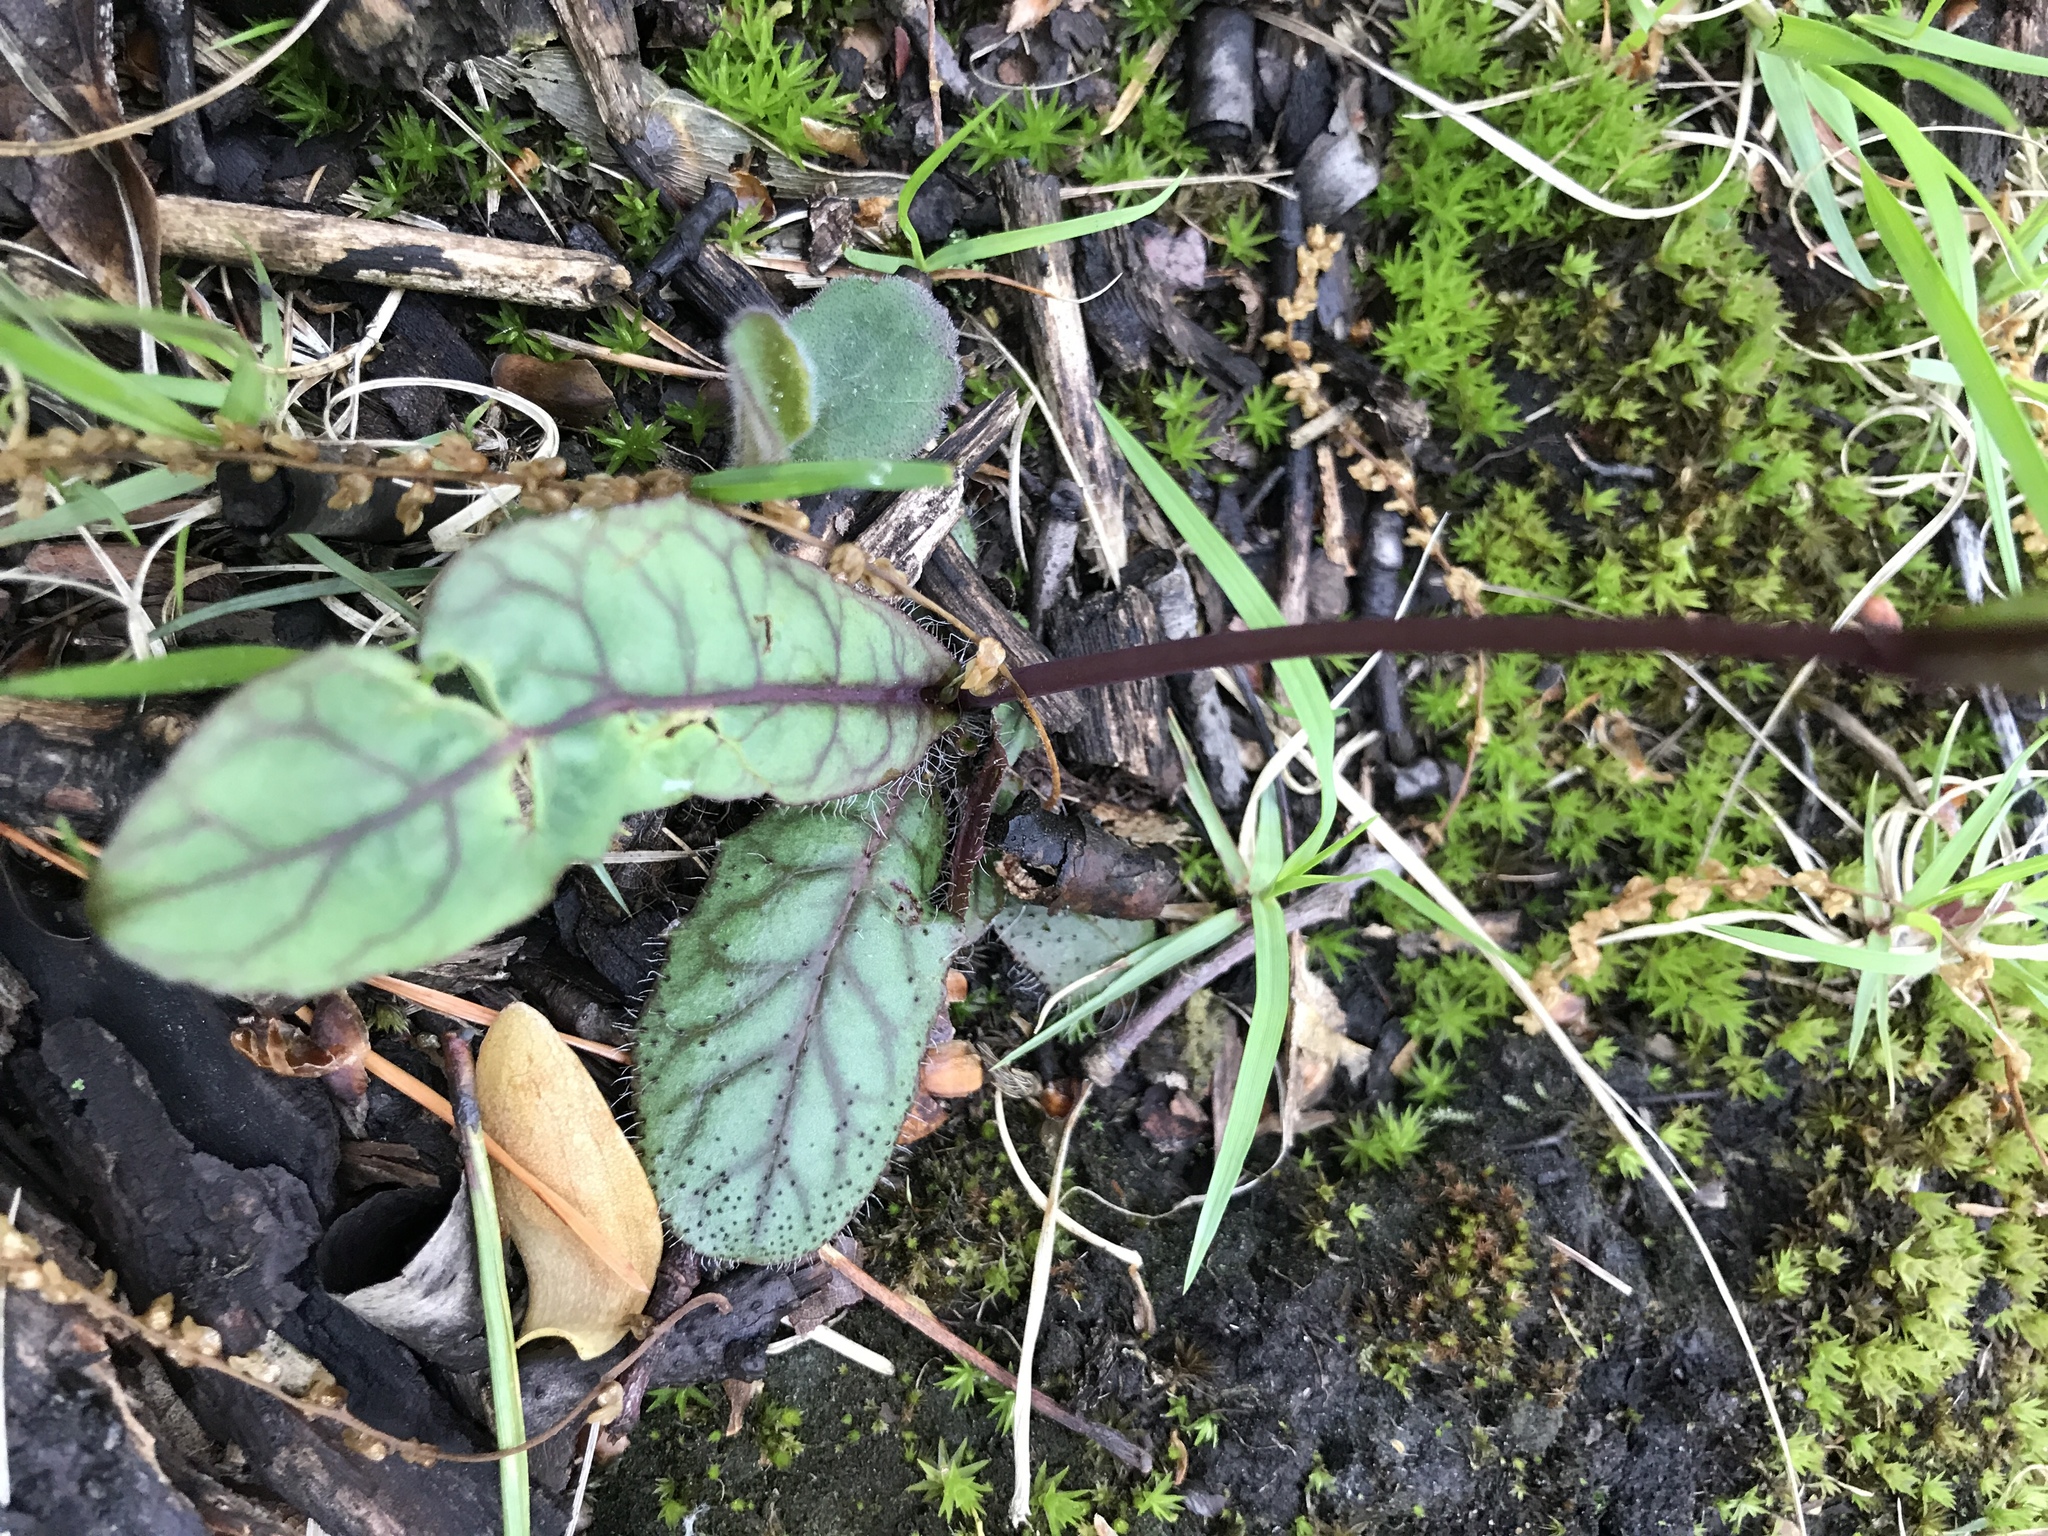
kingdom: Plantae
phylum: Tracheophyta
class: Magnoliopsida
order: Asterales
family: Asteraceae
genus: Hieracium
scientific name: Hieracium venosum
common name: Rattlesnake hawkweed
